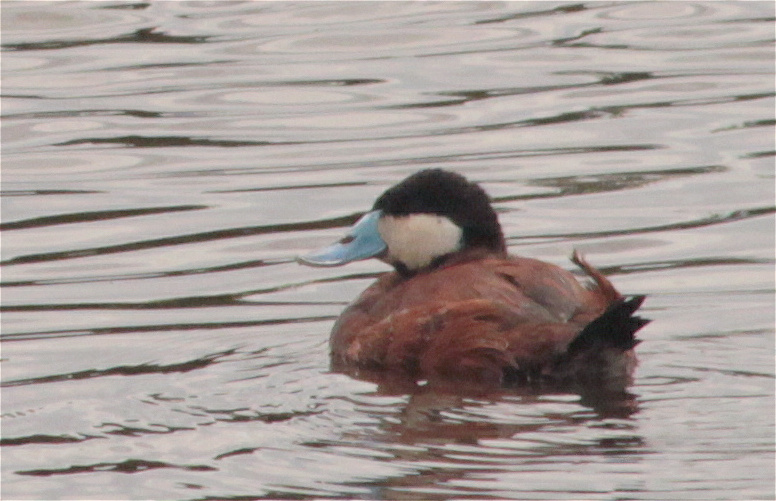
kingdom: Animalia
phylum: Chordata
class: Aves
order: Anseriformes
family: Anatidae
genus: Oxyura
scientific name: Oxyura ferruginea
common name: Andean duck
